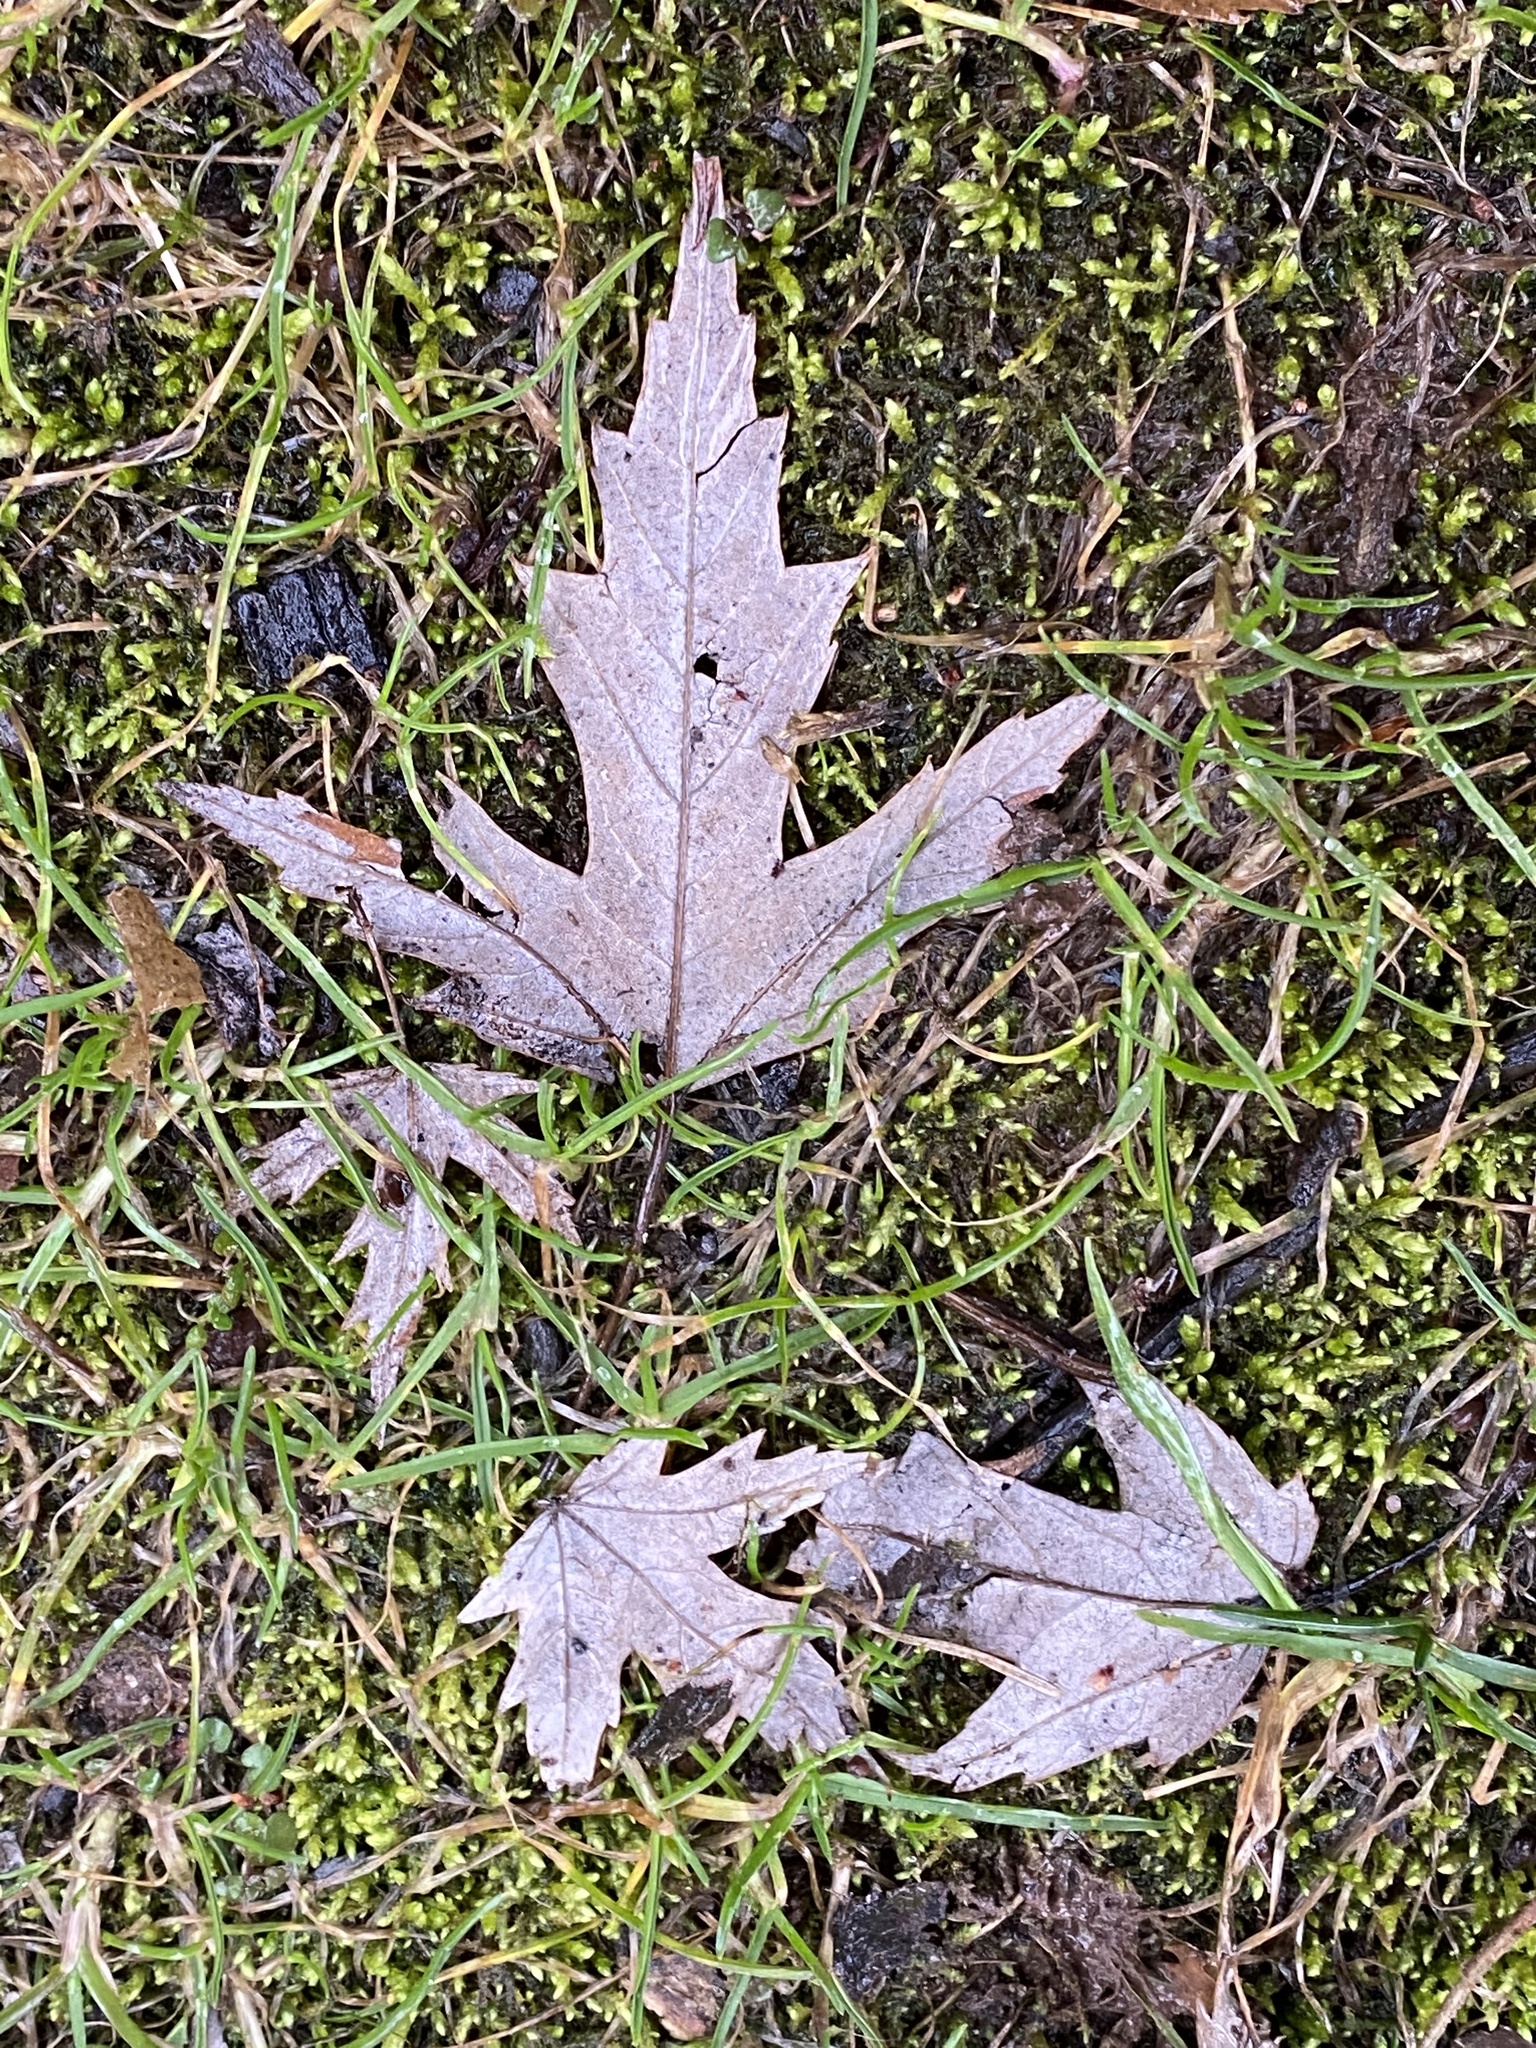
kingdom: Plantae
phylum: Tracheophyta
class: Magnoliopsida
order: Sapindales
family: Sapindaceae
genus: Acer
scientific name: Acer saccharinum
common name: Silver maple
